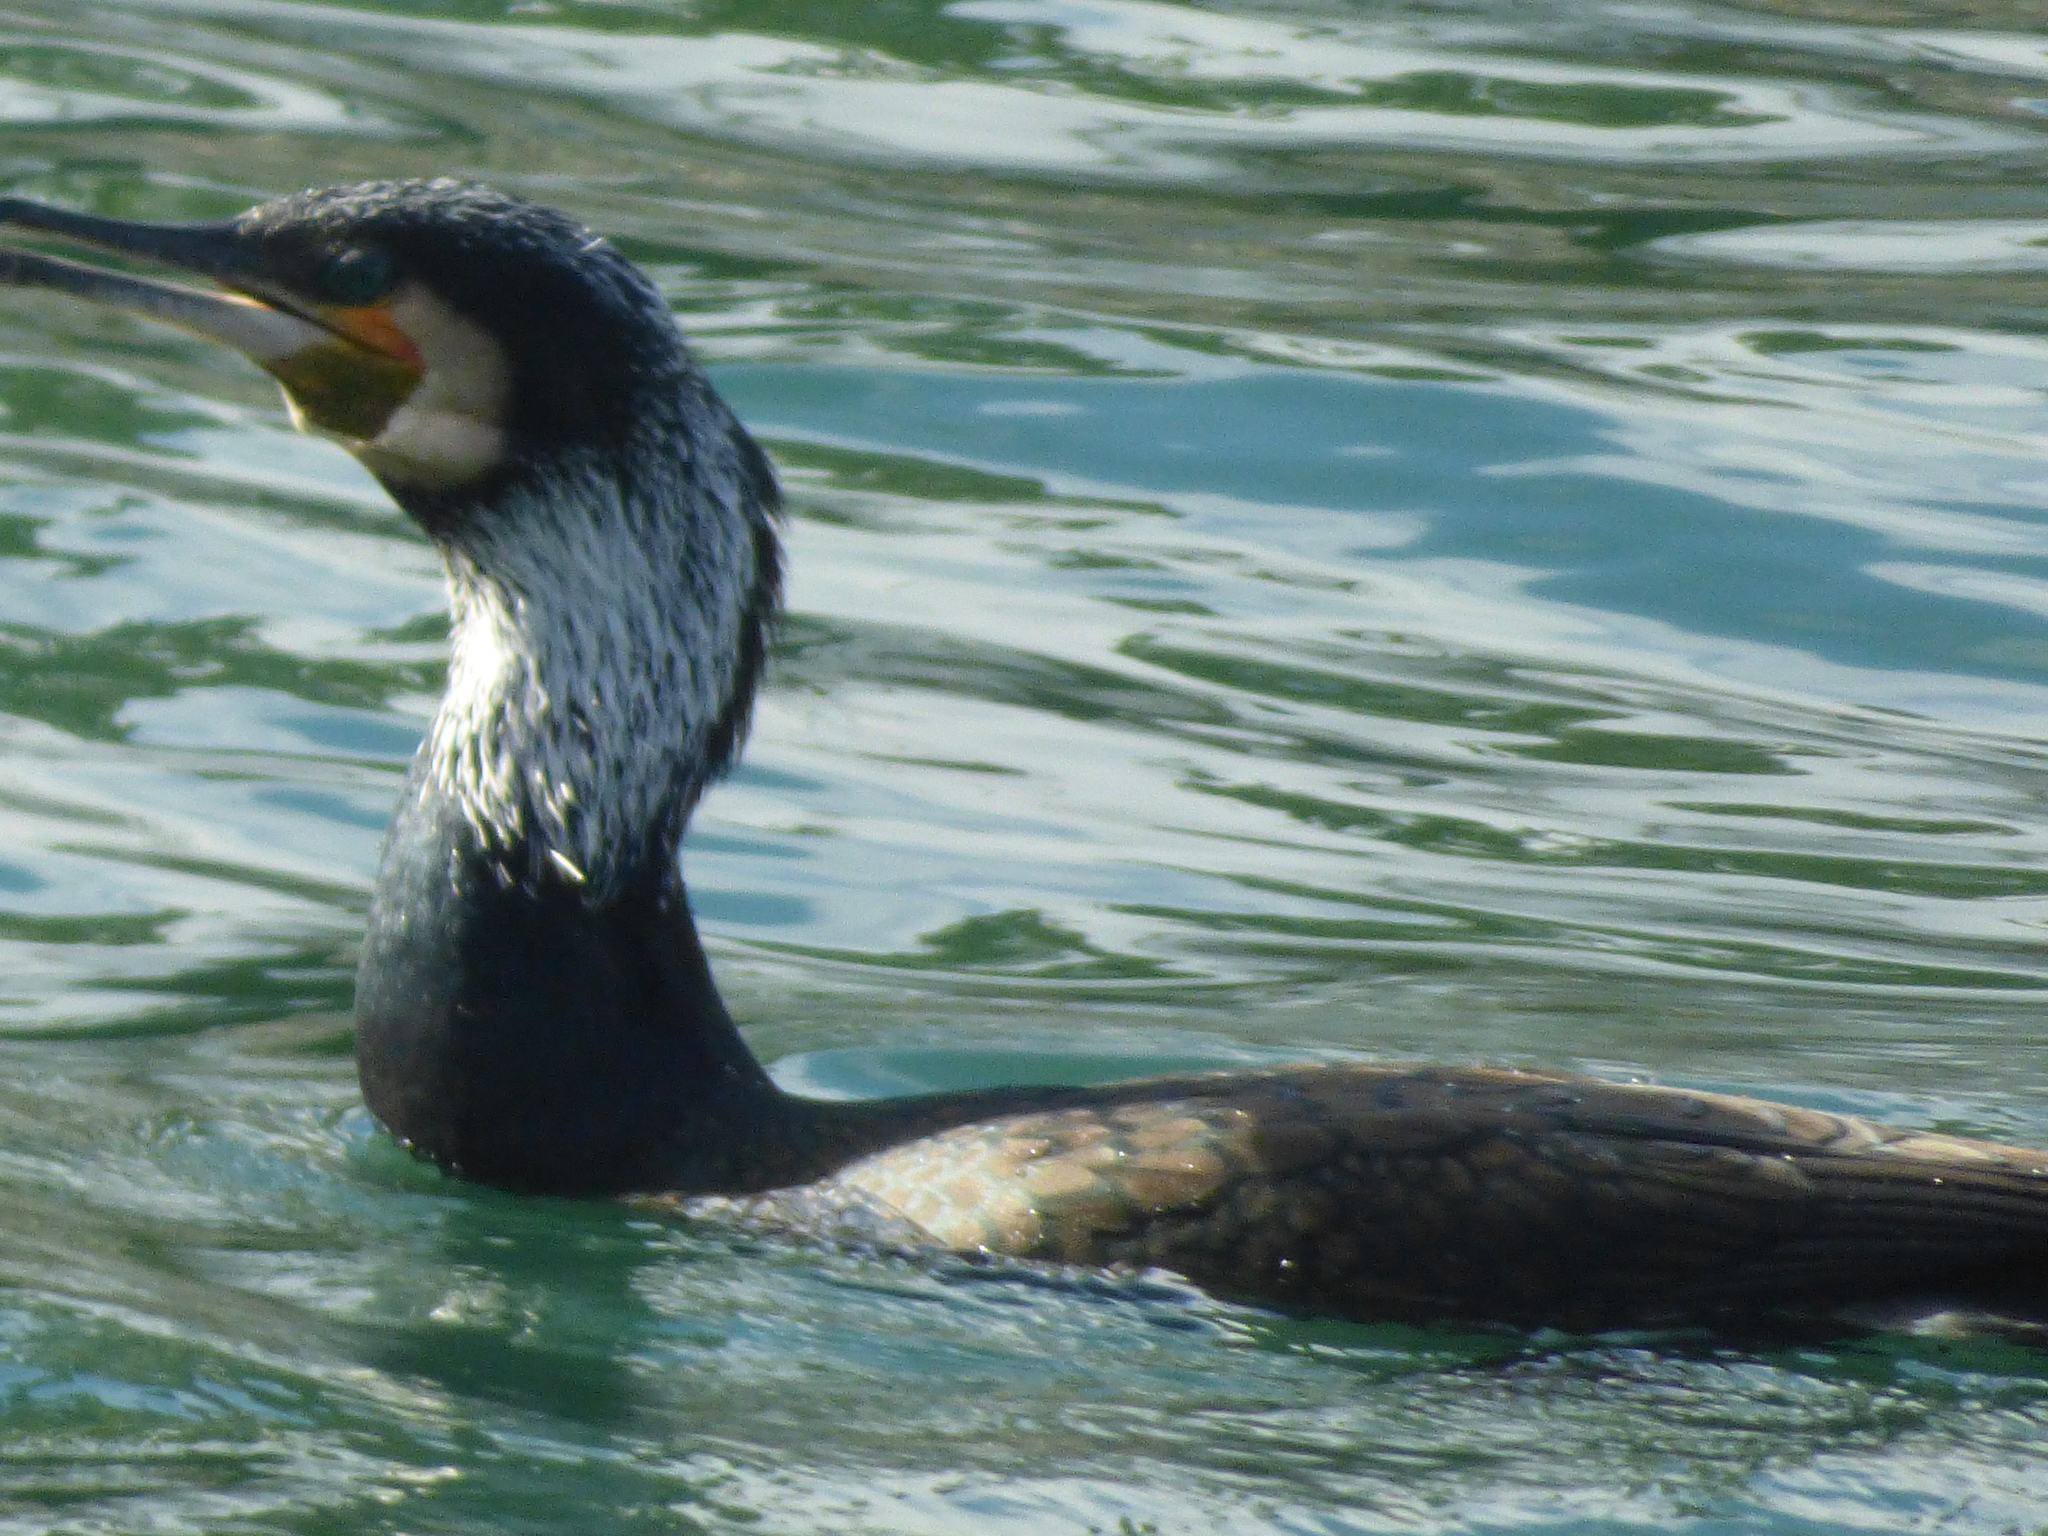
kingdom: Animalia
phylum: Chordata
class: Aves
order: Suliformes
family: Phalacrocoracidae
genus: Phalacrocorax
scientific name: Phalacrocorax carbo
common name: Great cormorant
